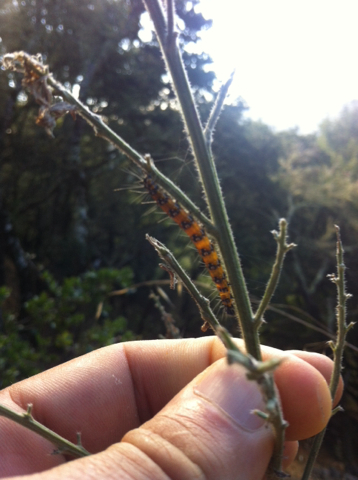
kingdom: Animalia
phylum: Arthropoda
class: Insecta
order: Lepidoptera
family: Crambidae
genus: Uresiphita
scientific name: Uresiphita reversalis
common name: Genista broom moth
